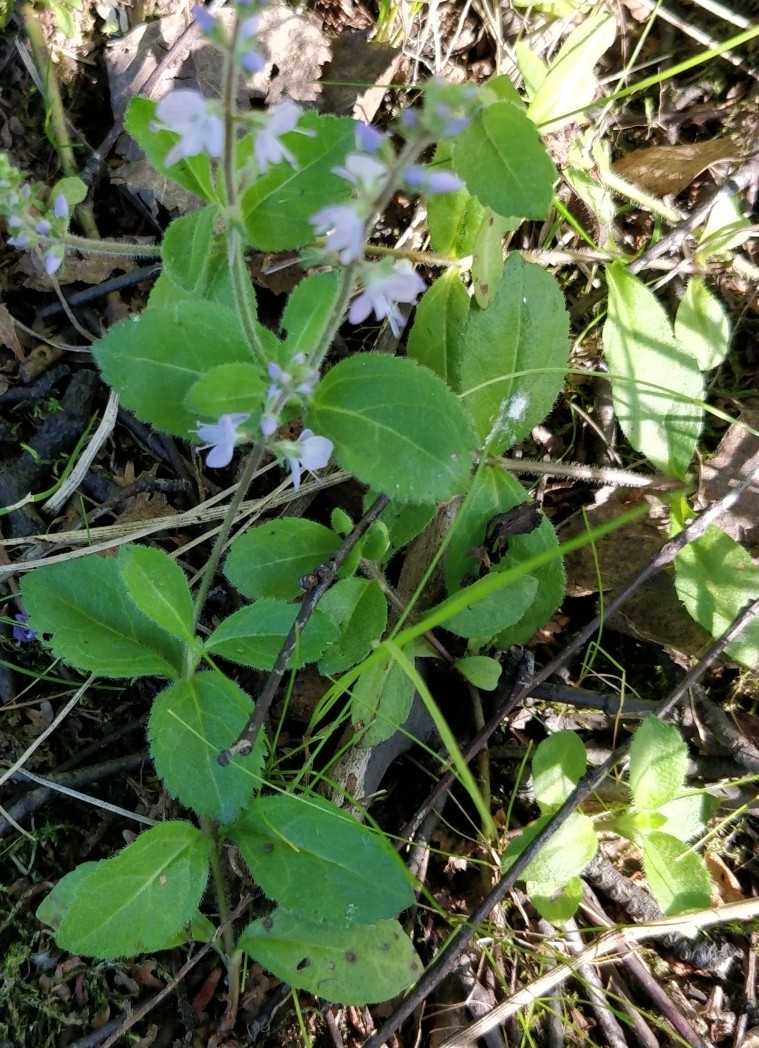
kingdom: Plantae
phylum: Tracheophyta
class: Magnoliopsida
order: Lamiales
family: Plantaginaceae
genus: Veronica
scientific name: Veronica officinalis
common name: Common speedwell
